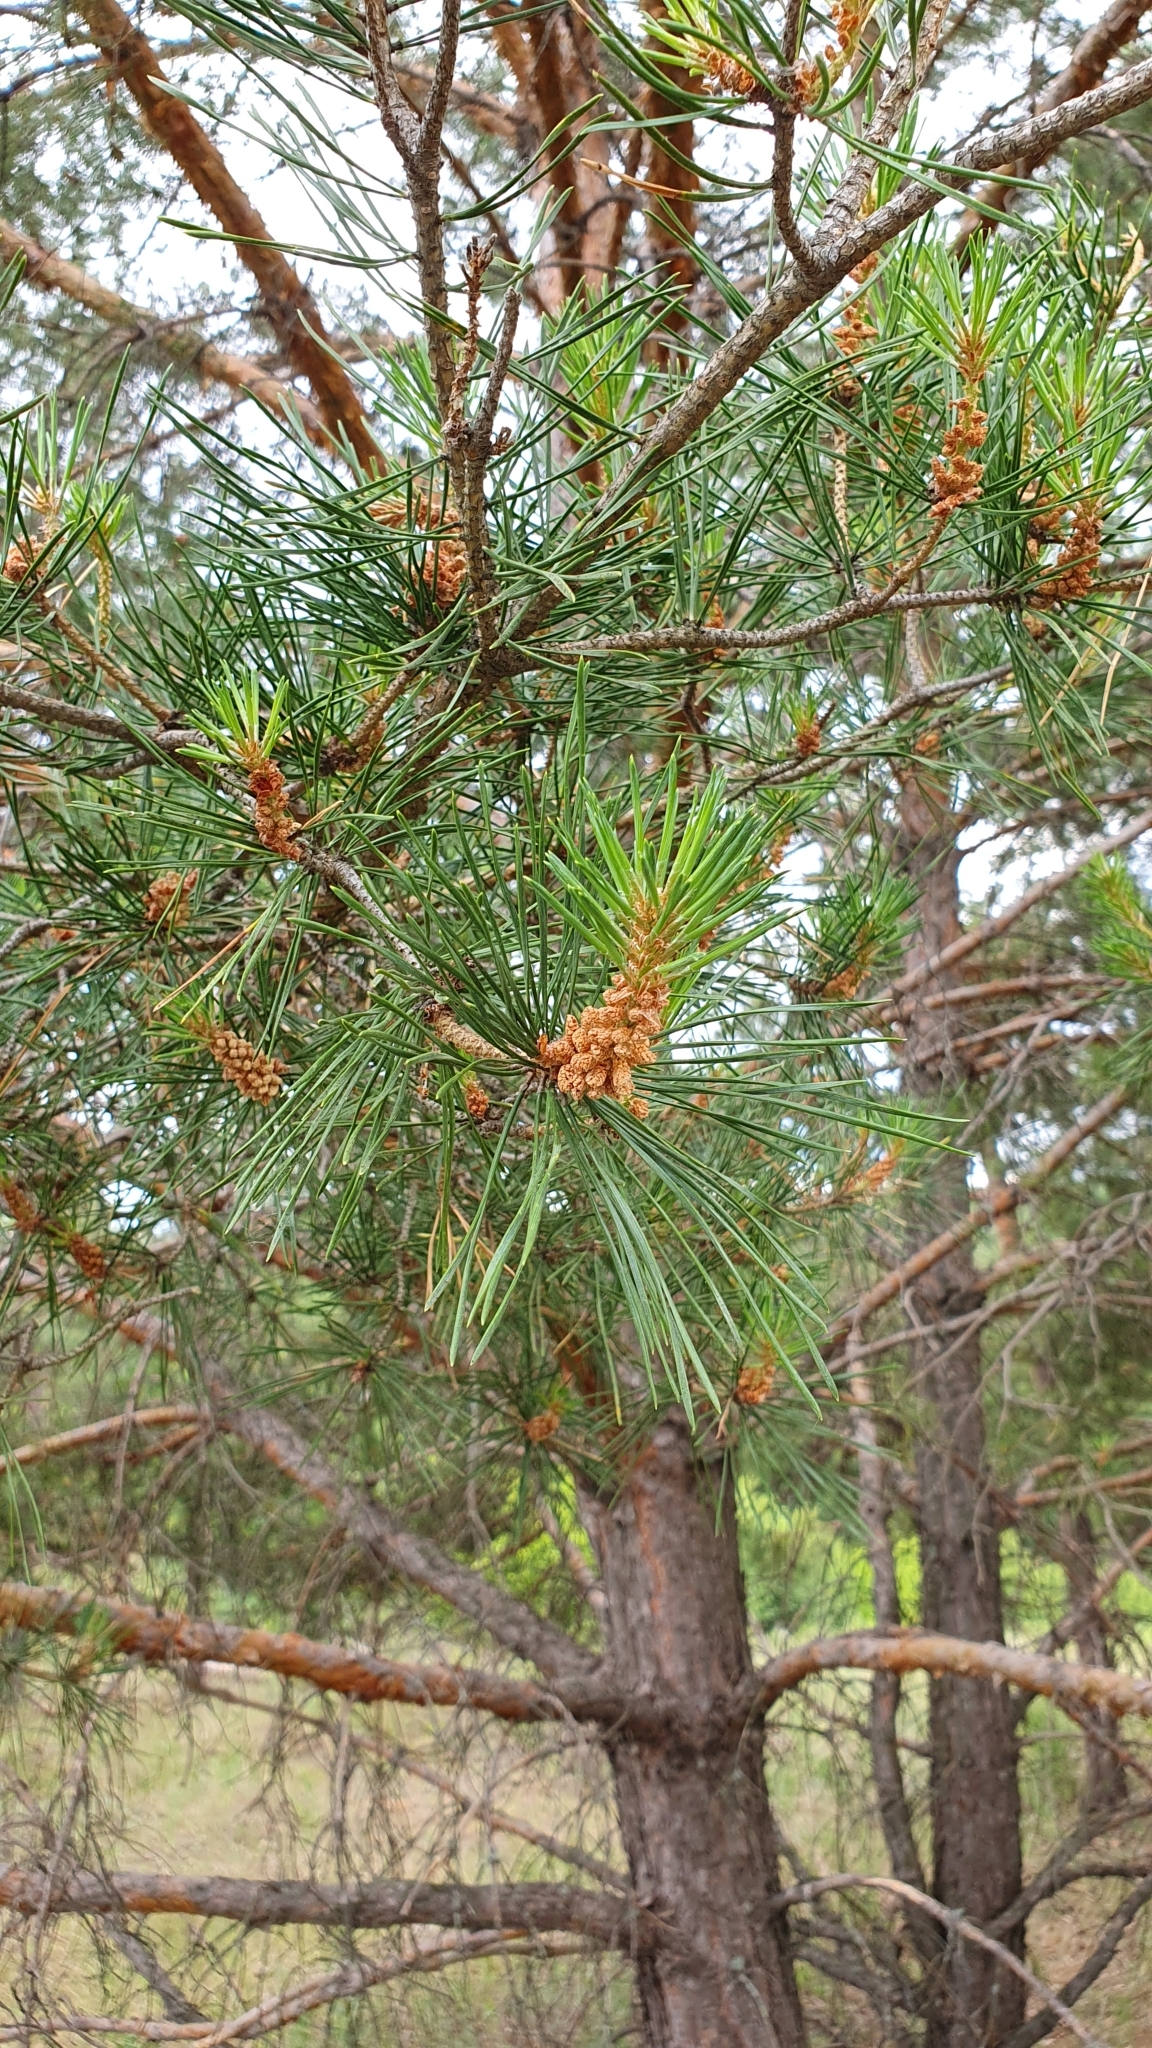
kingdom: Plantae
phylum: Tracheophyta
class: Pinopsida
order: Pinales
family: Pinaceae
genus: Pinus
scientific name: Pinus sylvestris
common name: Scots pine
